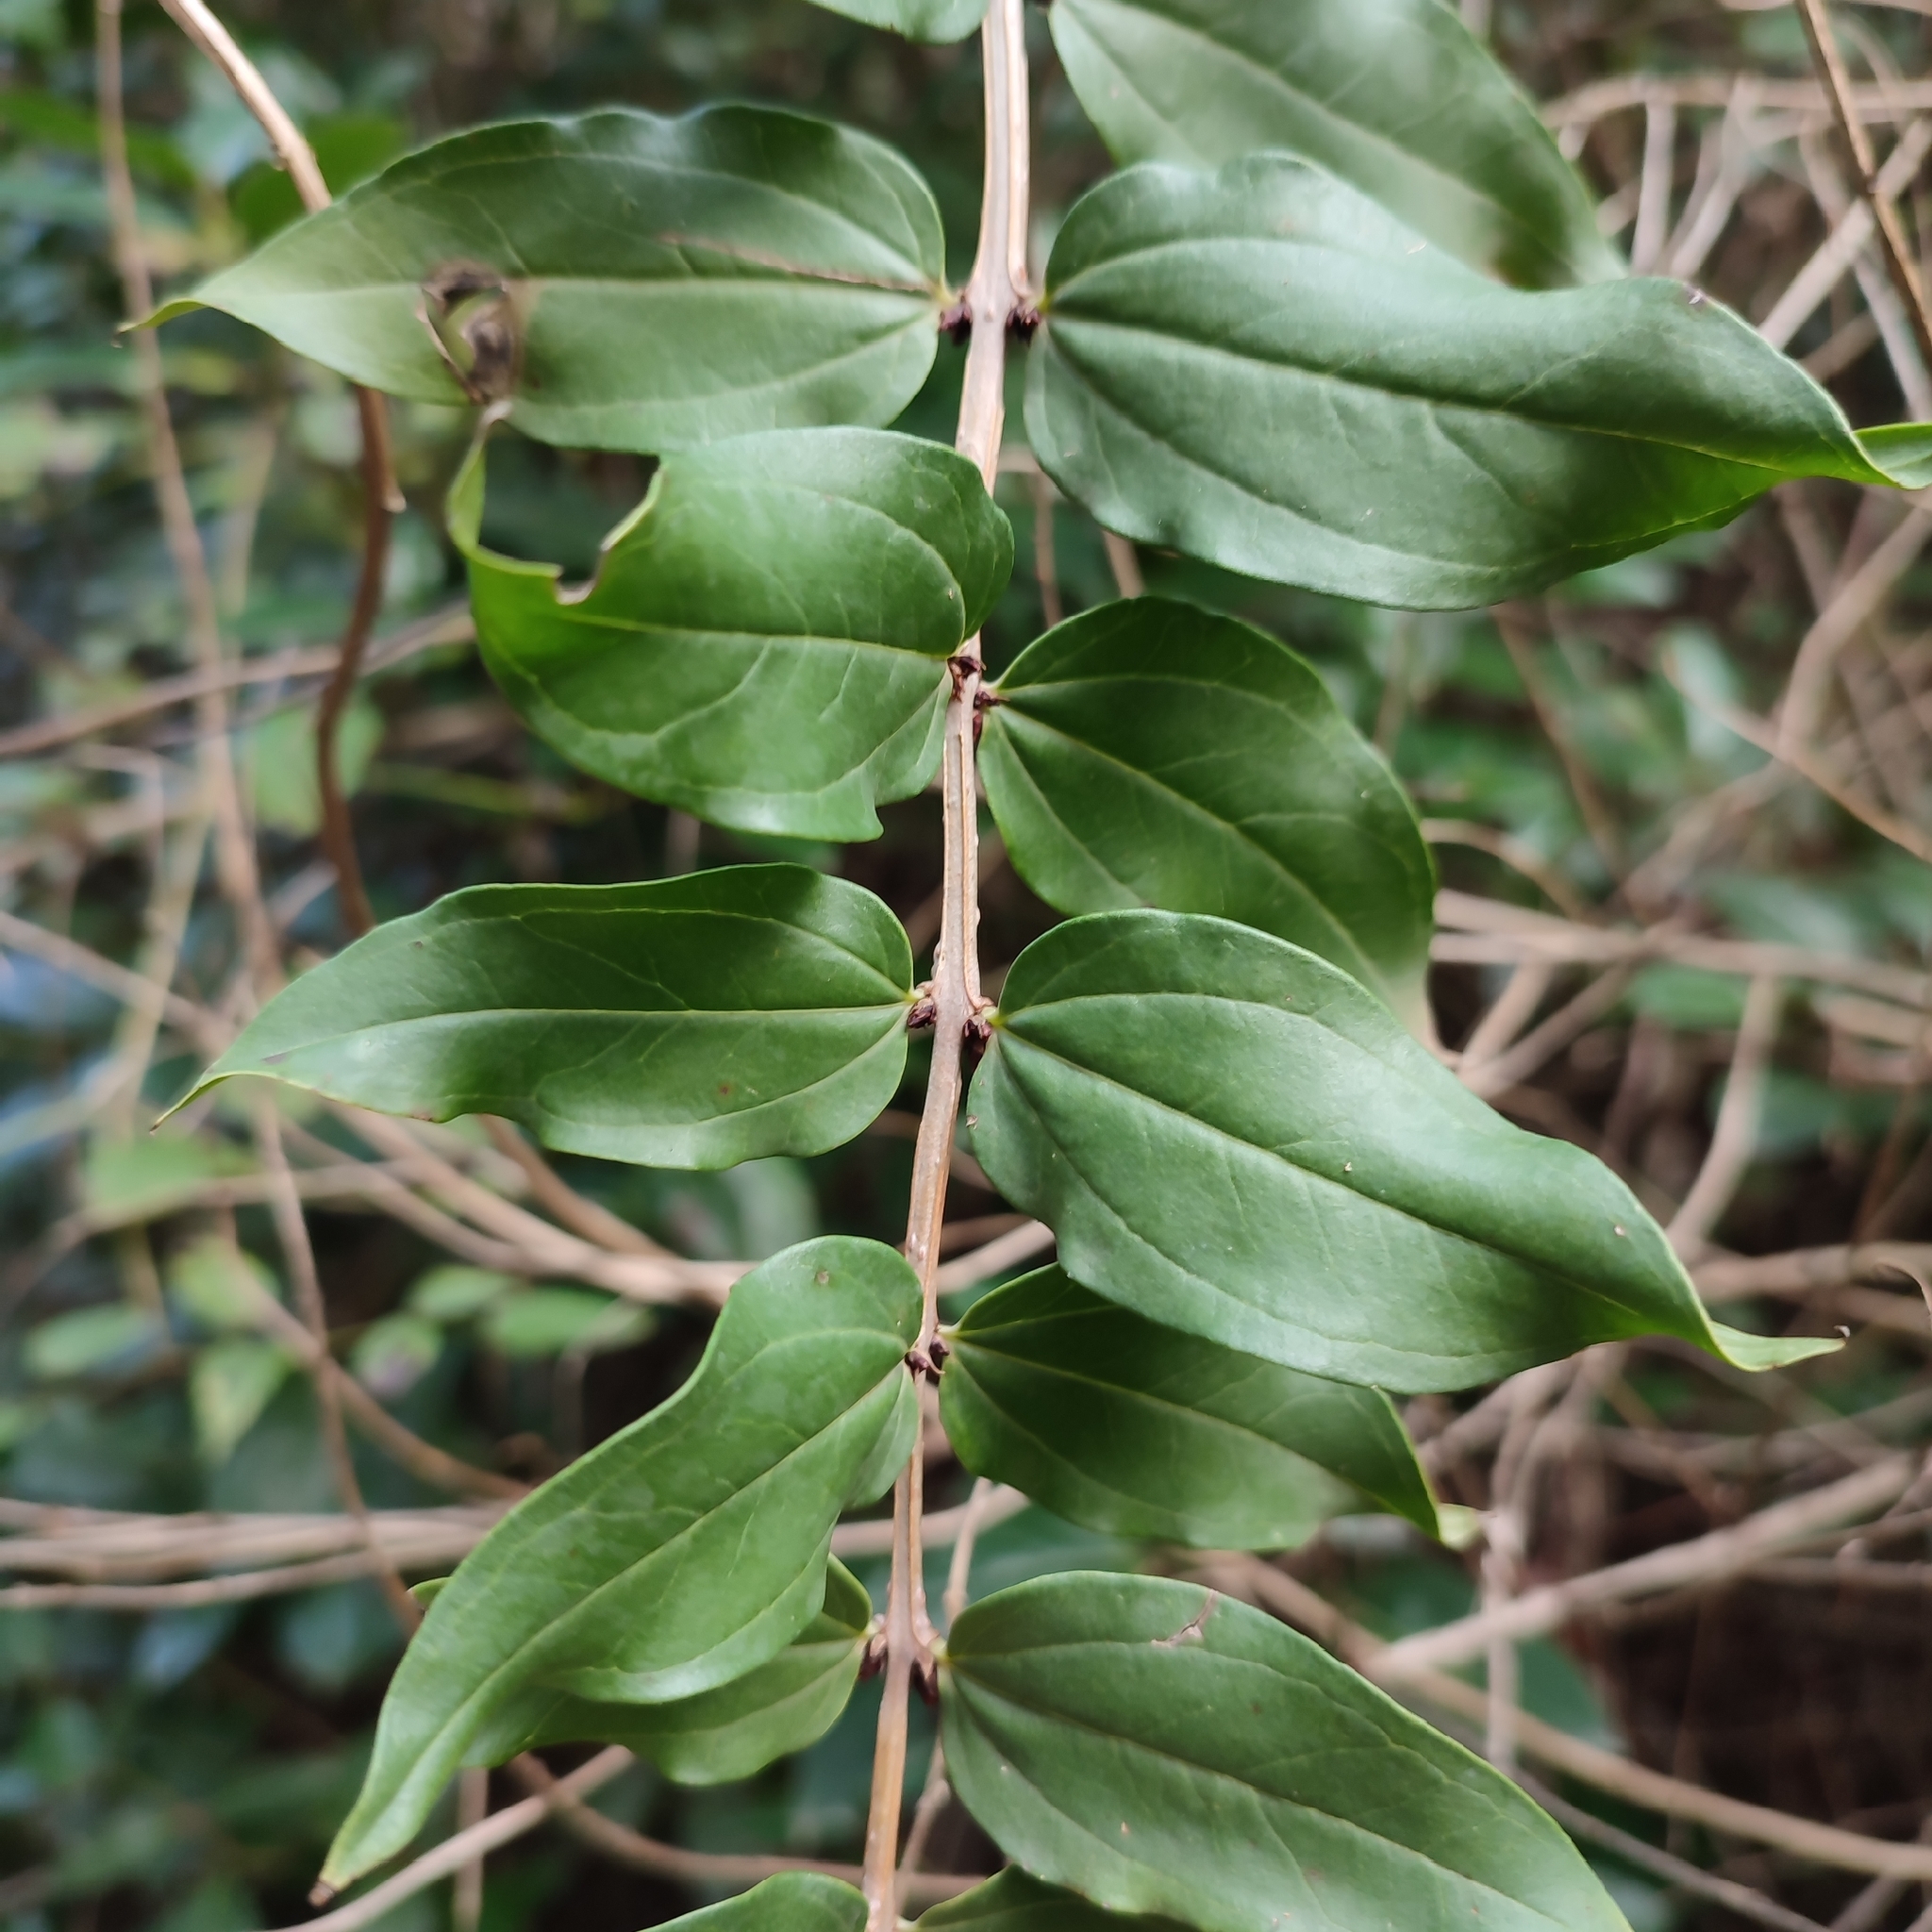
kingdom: Plantae
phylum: Tracheophyta
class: Magnoliopsida
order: Cucurbitales
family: Coriariaceae
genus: Coriaria
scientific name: Coriaria myrtifolia
